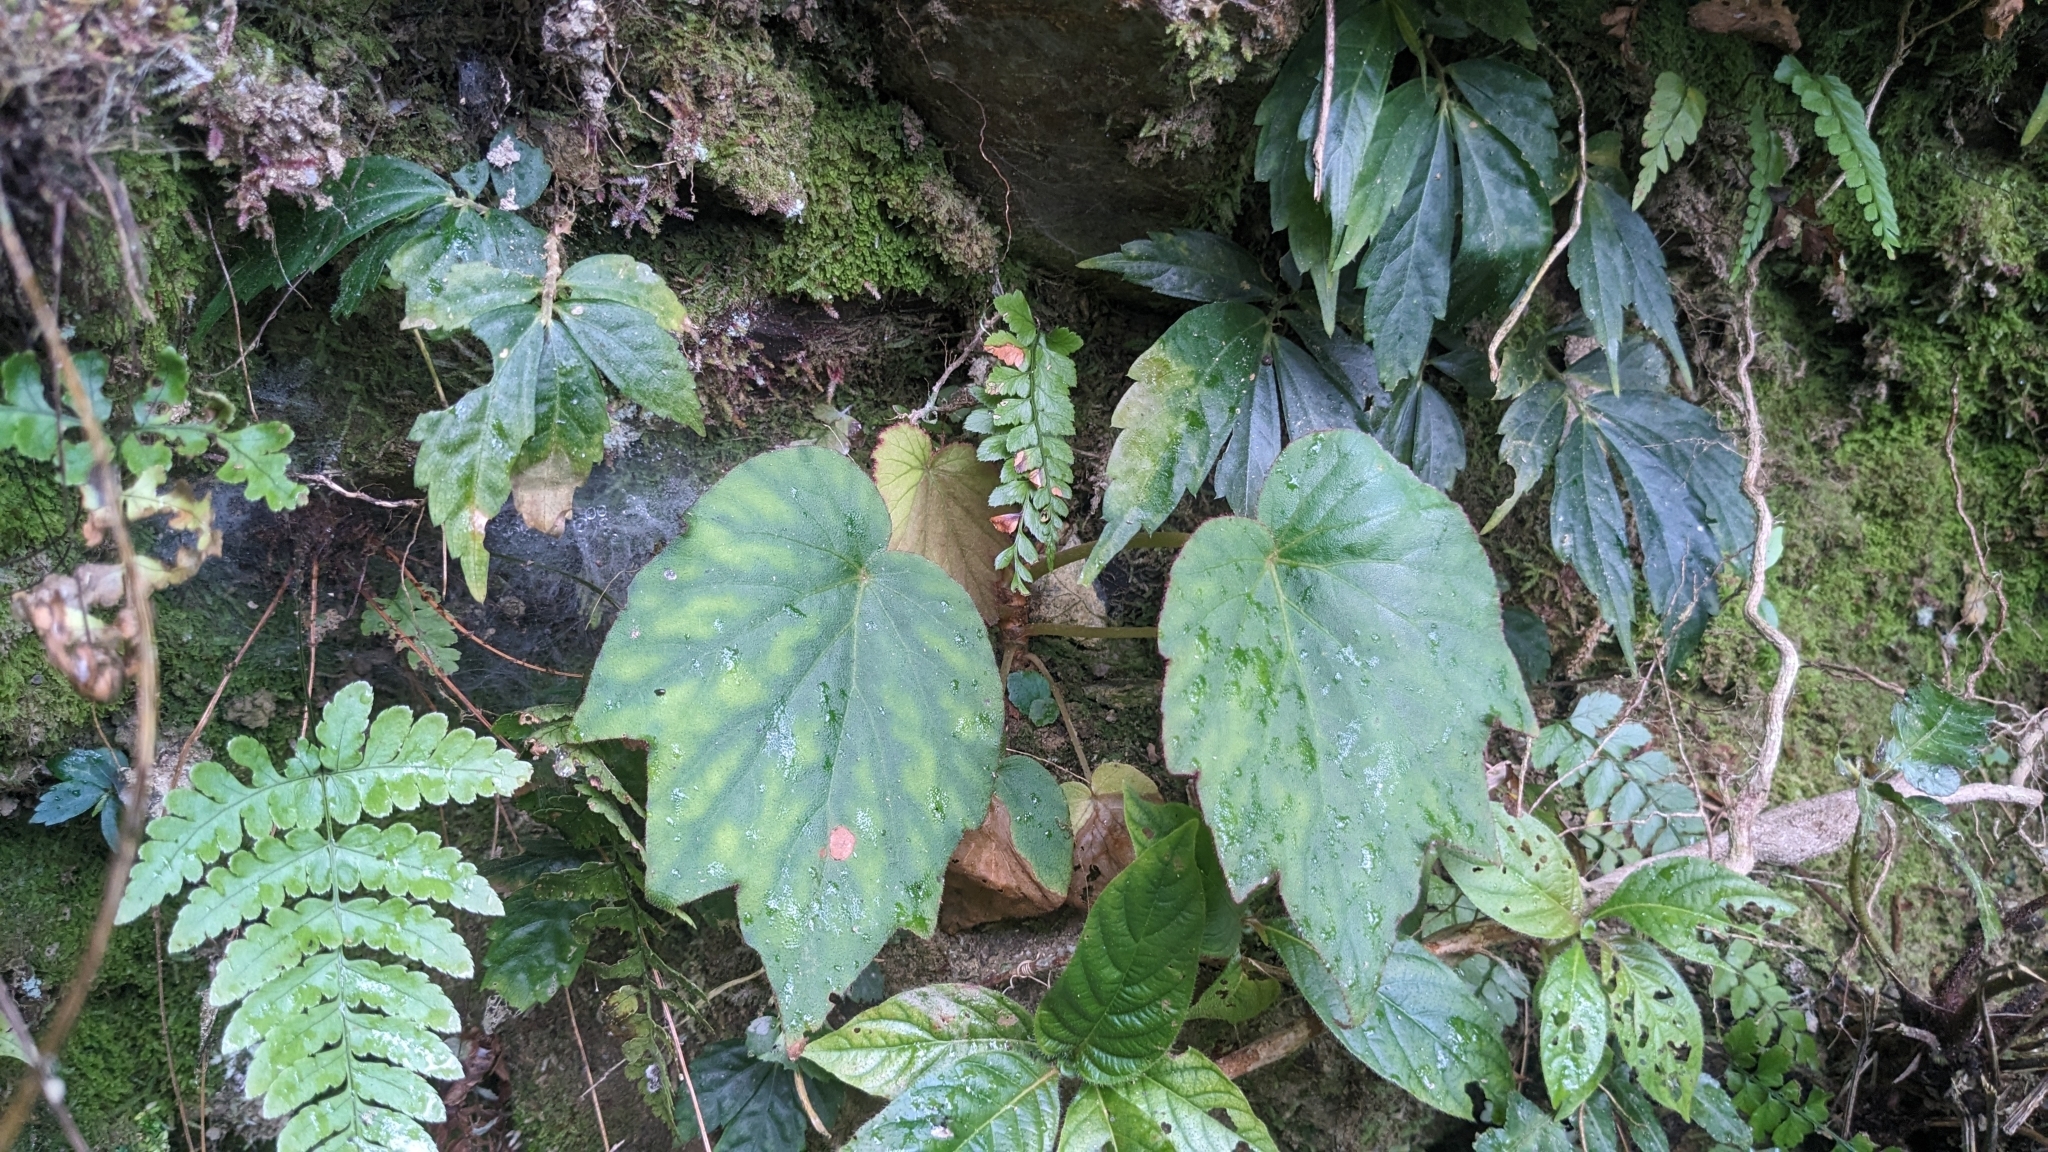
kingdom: Plantae
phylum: Tracheophyta
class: Magnoliopsida
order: Cucurbitales
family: Begoniaceae
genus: Begonia
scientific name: Begonia palmata
